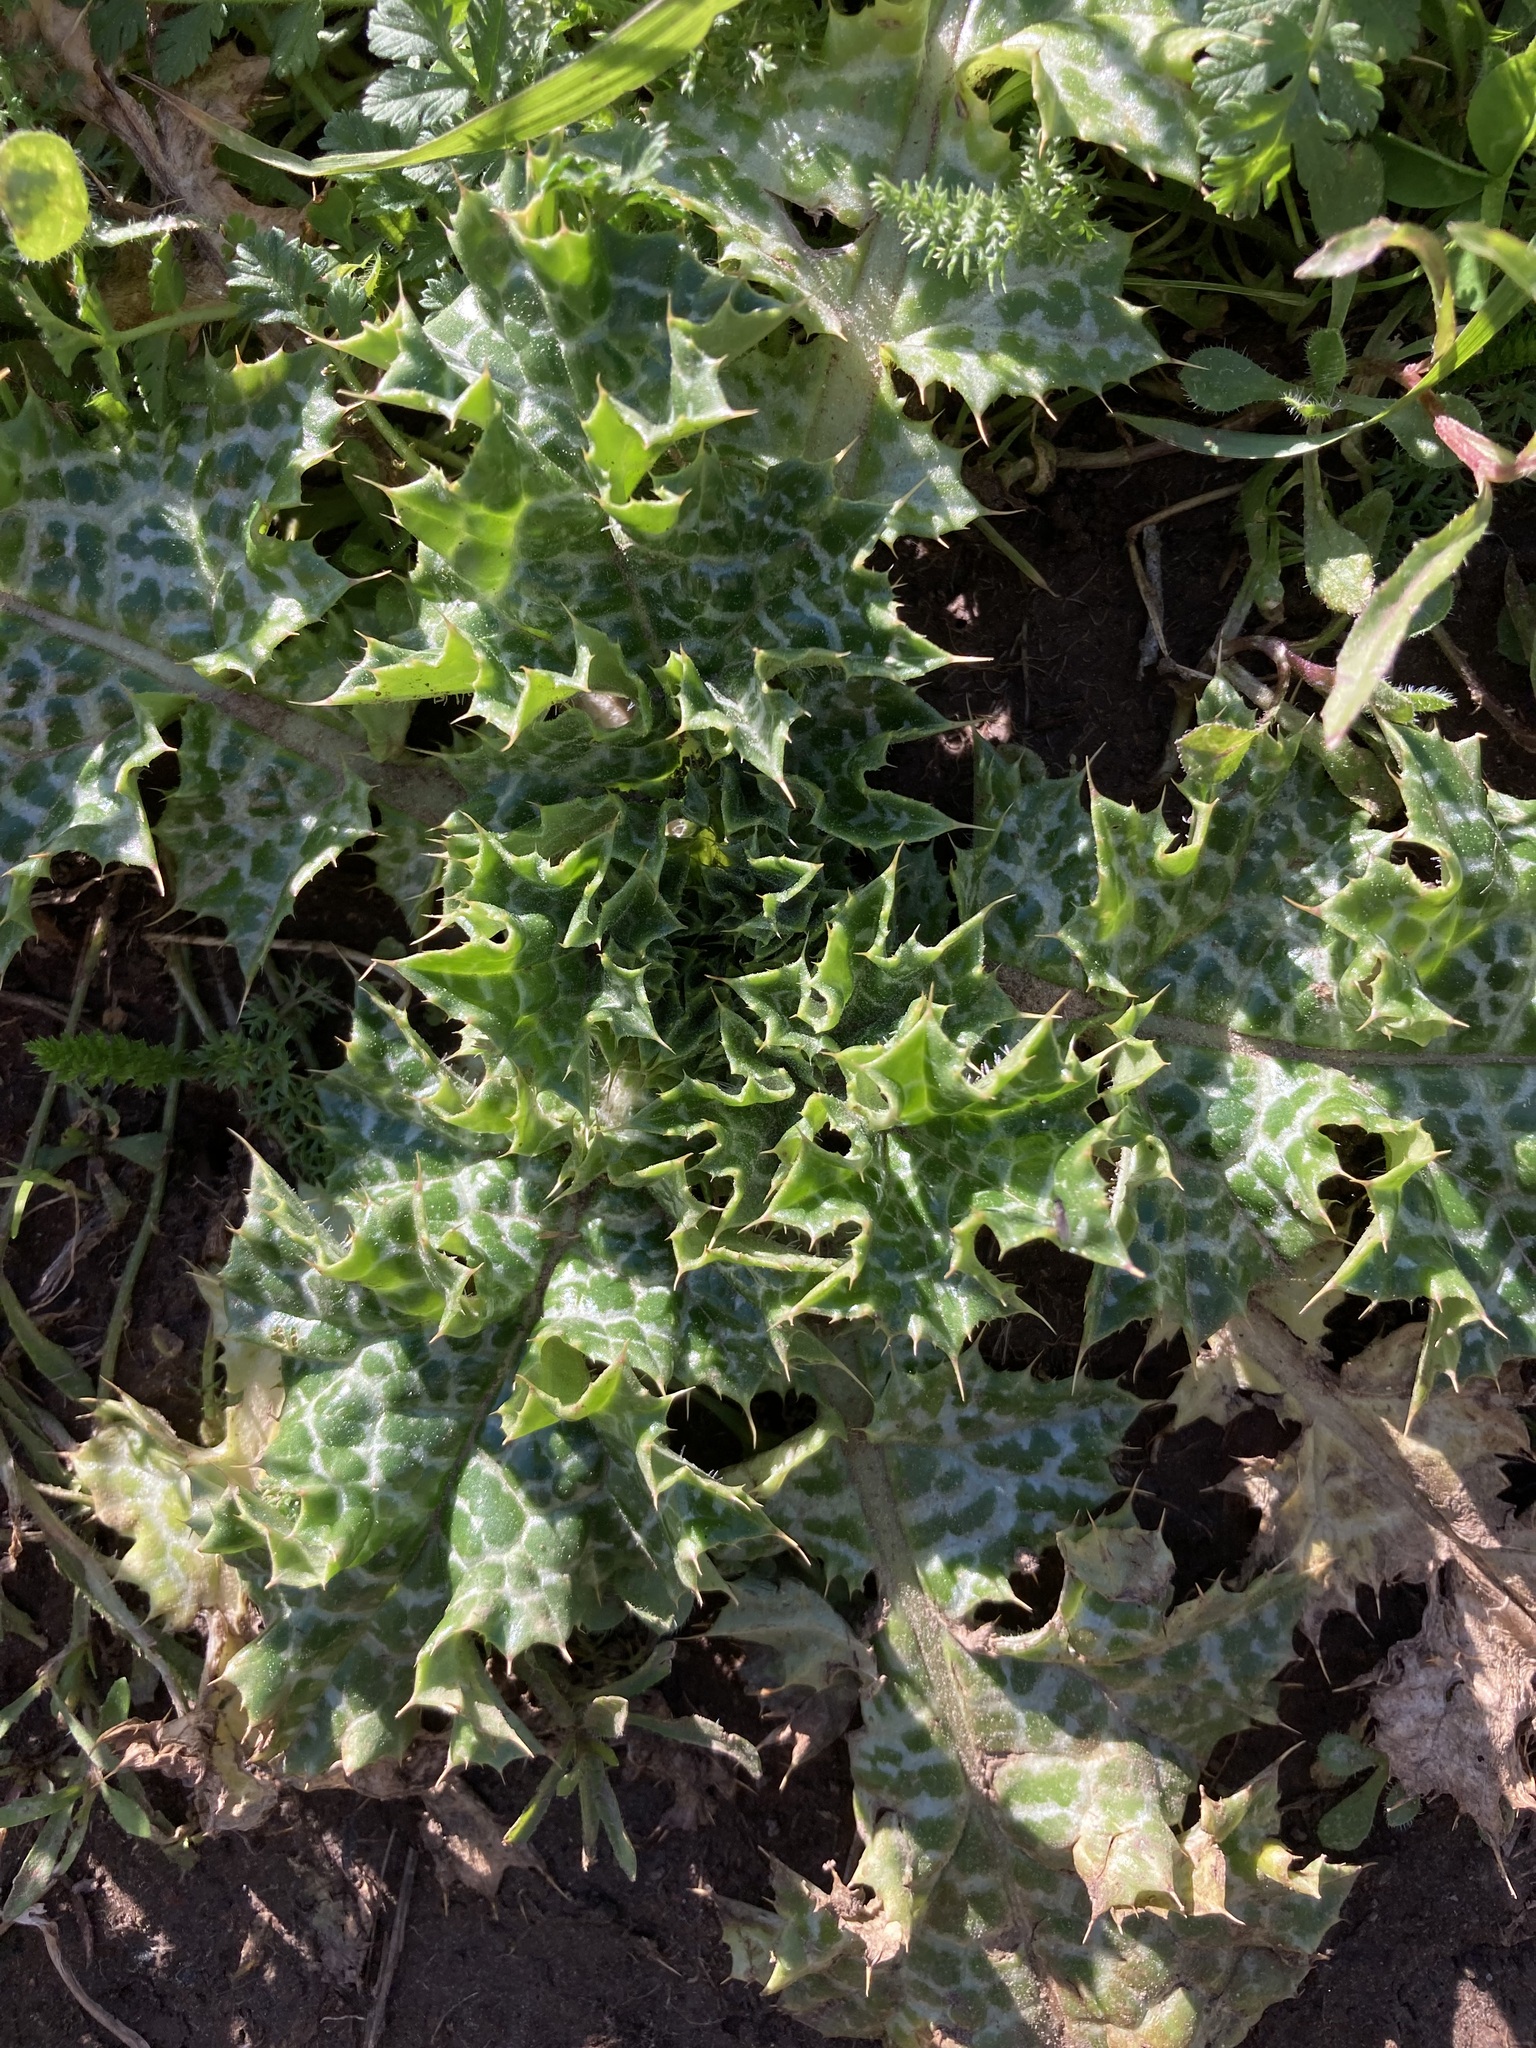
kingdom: Plantae
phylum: Tracheophyta
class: Magnoliopsida
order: Asterales
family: Asteraceae
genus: Silybum
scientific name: Silybum marianum
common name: Milk thistle
